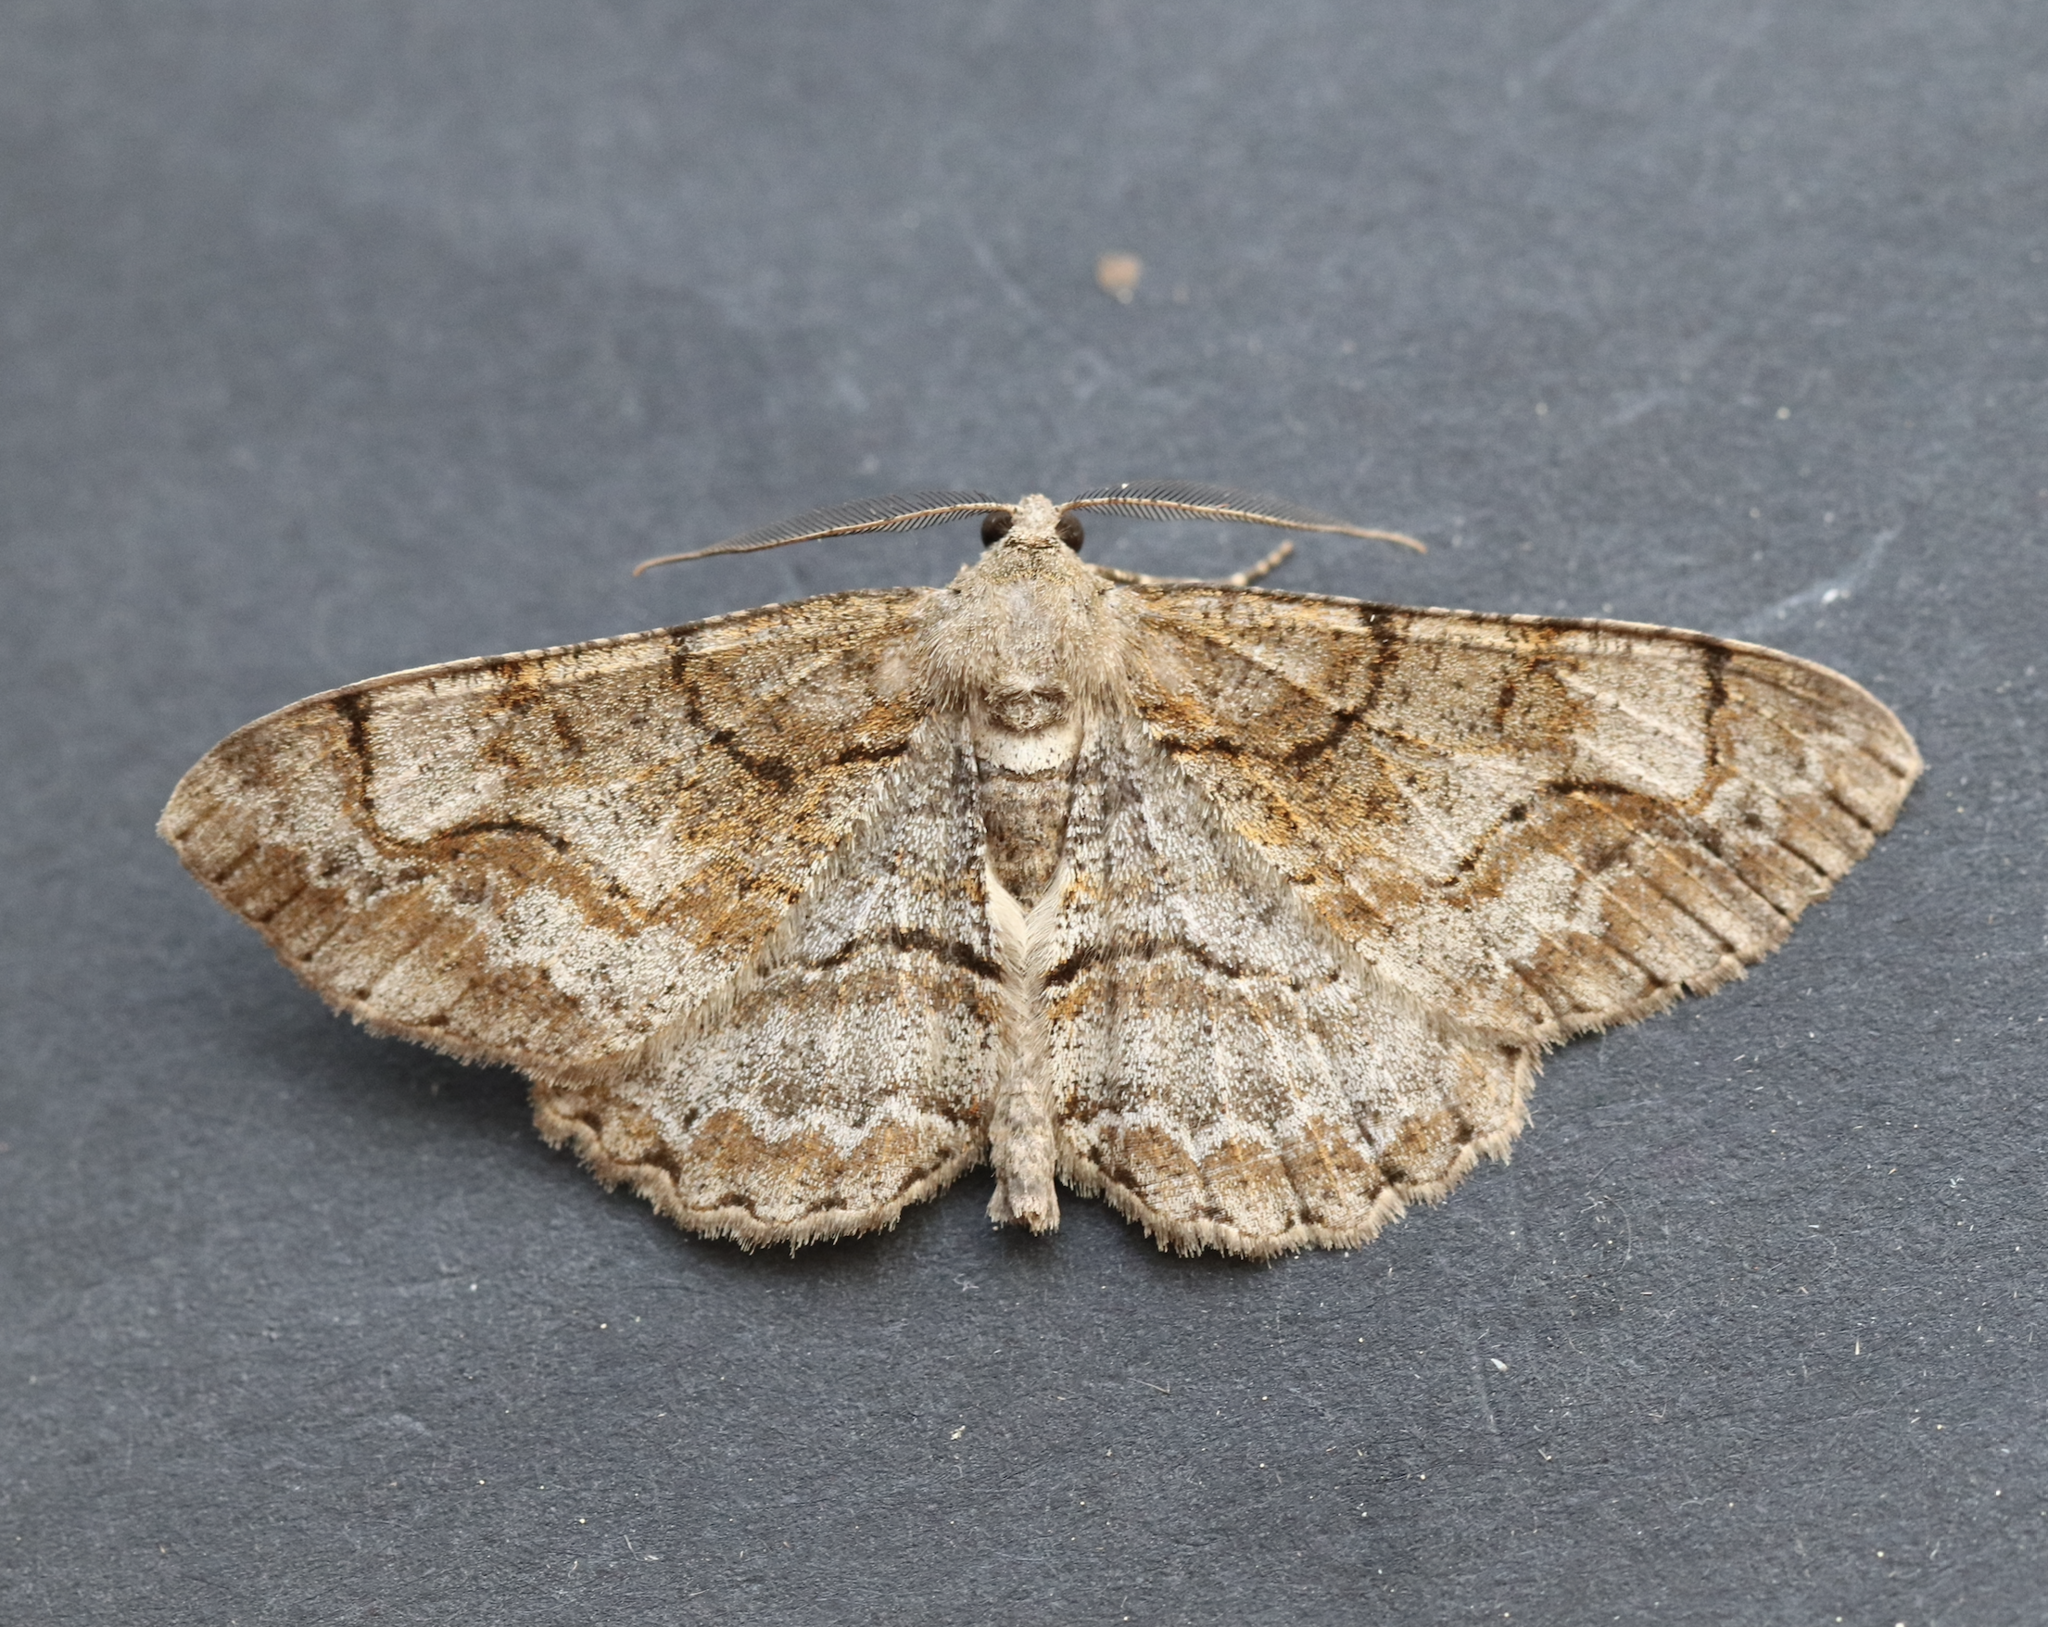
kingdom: Animalia
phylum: Arthropoda
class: Insecta
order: Lepidoptera
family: Geometridae
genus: Alcis
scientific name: Alcis repandata
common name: Mottled beauty
